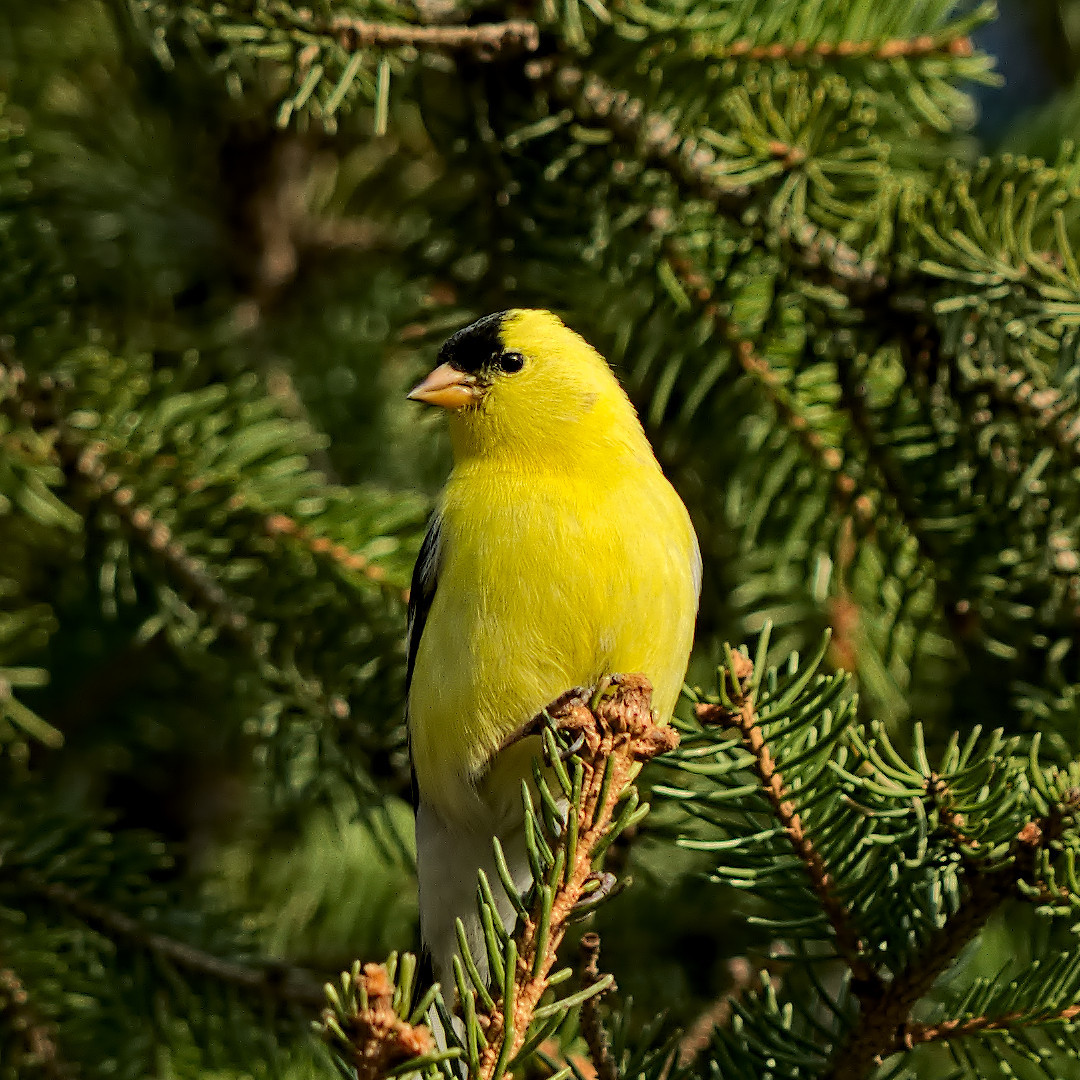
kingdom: Animalia
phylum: Chordata
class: Aves
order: Passeriformes
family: Fringillidae
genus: Spinus
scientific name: Spinus tristis
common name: American goldfinch
